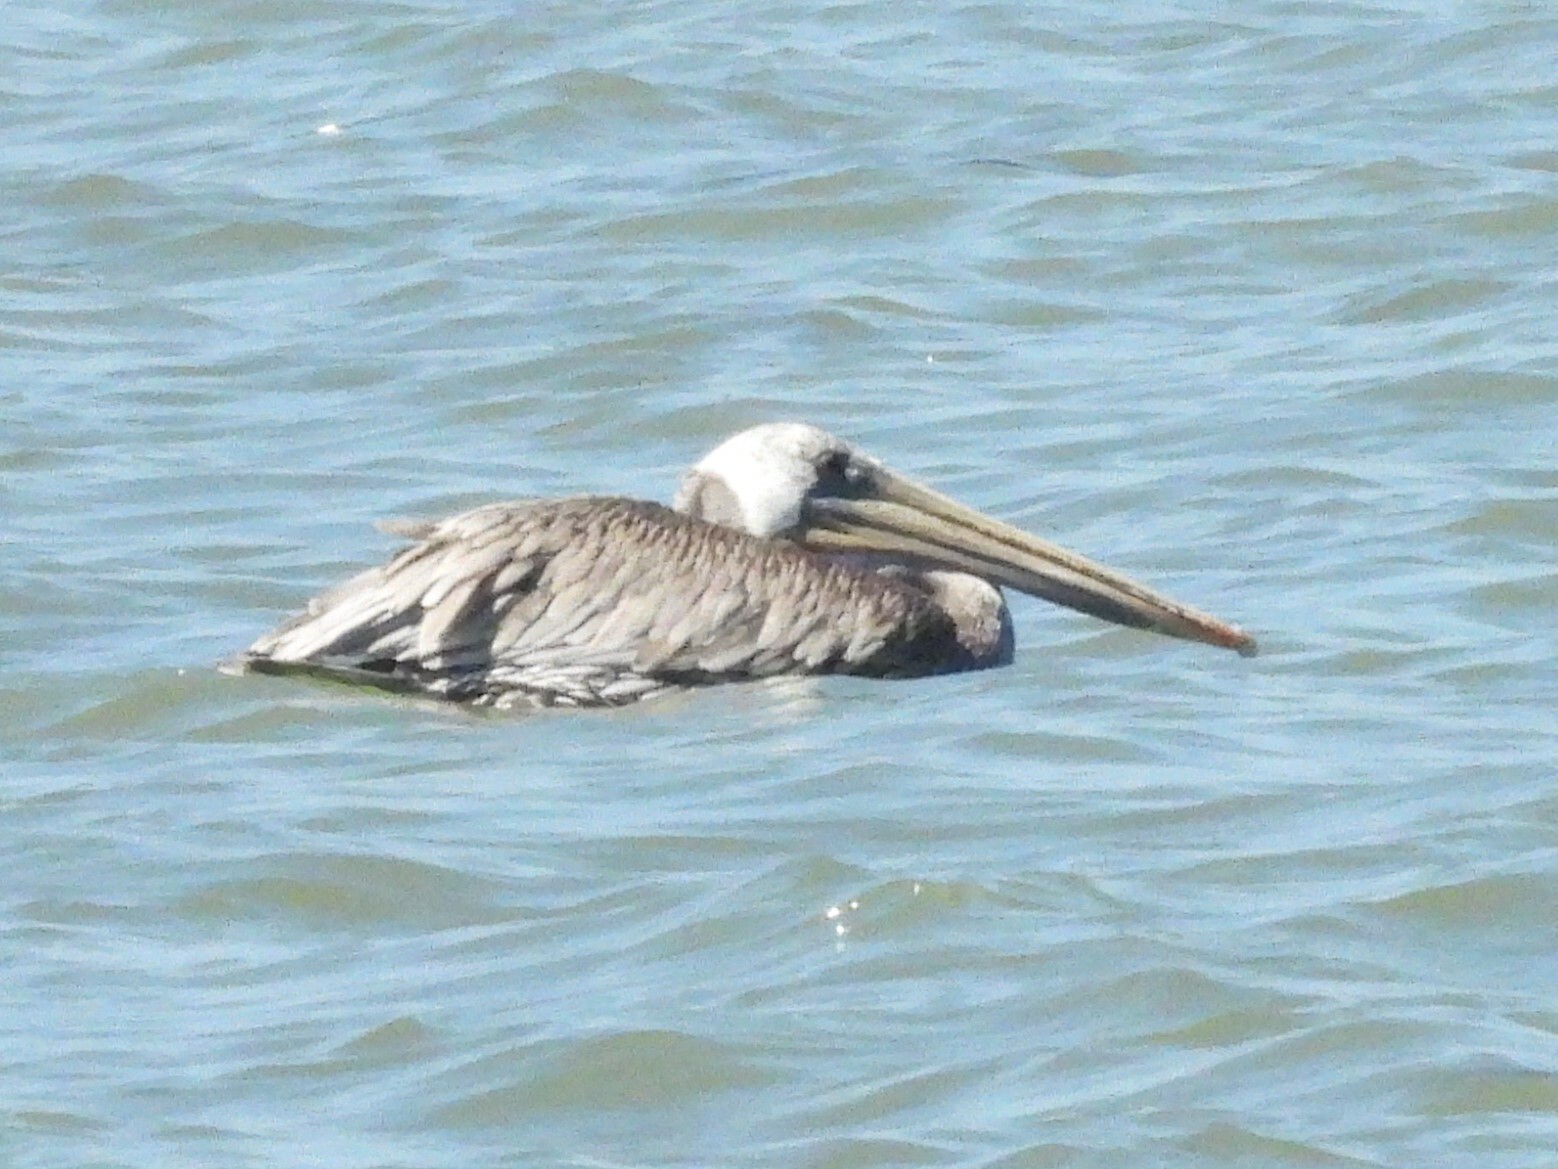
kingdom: Animalia
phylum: Chordata
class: Aves
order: Pelecaniformes
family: Pelecanidae
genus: Pelecanus
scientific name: Pelecanus occidentalis
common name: Brown pelican
